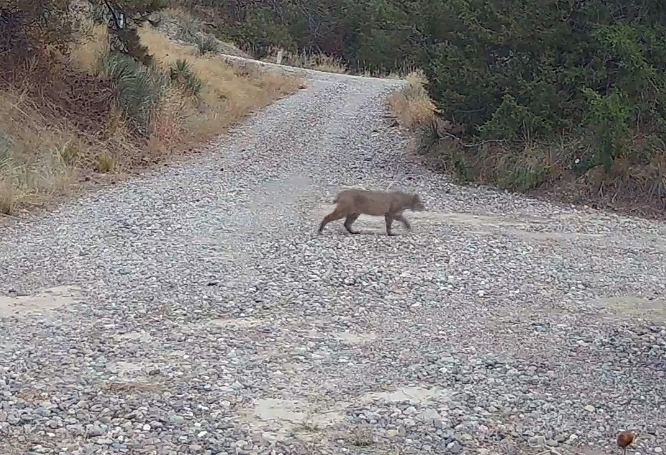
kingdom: Animalia
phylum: Chordata
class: Mammalia
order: Carnivora
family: Felidae
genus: Lynx
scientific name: Lynx rufus
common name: Bobcat
